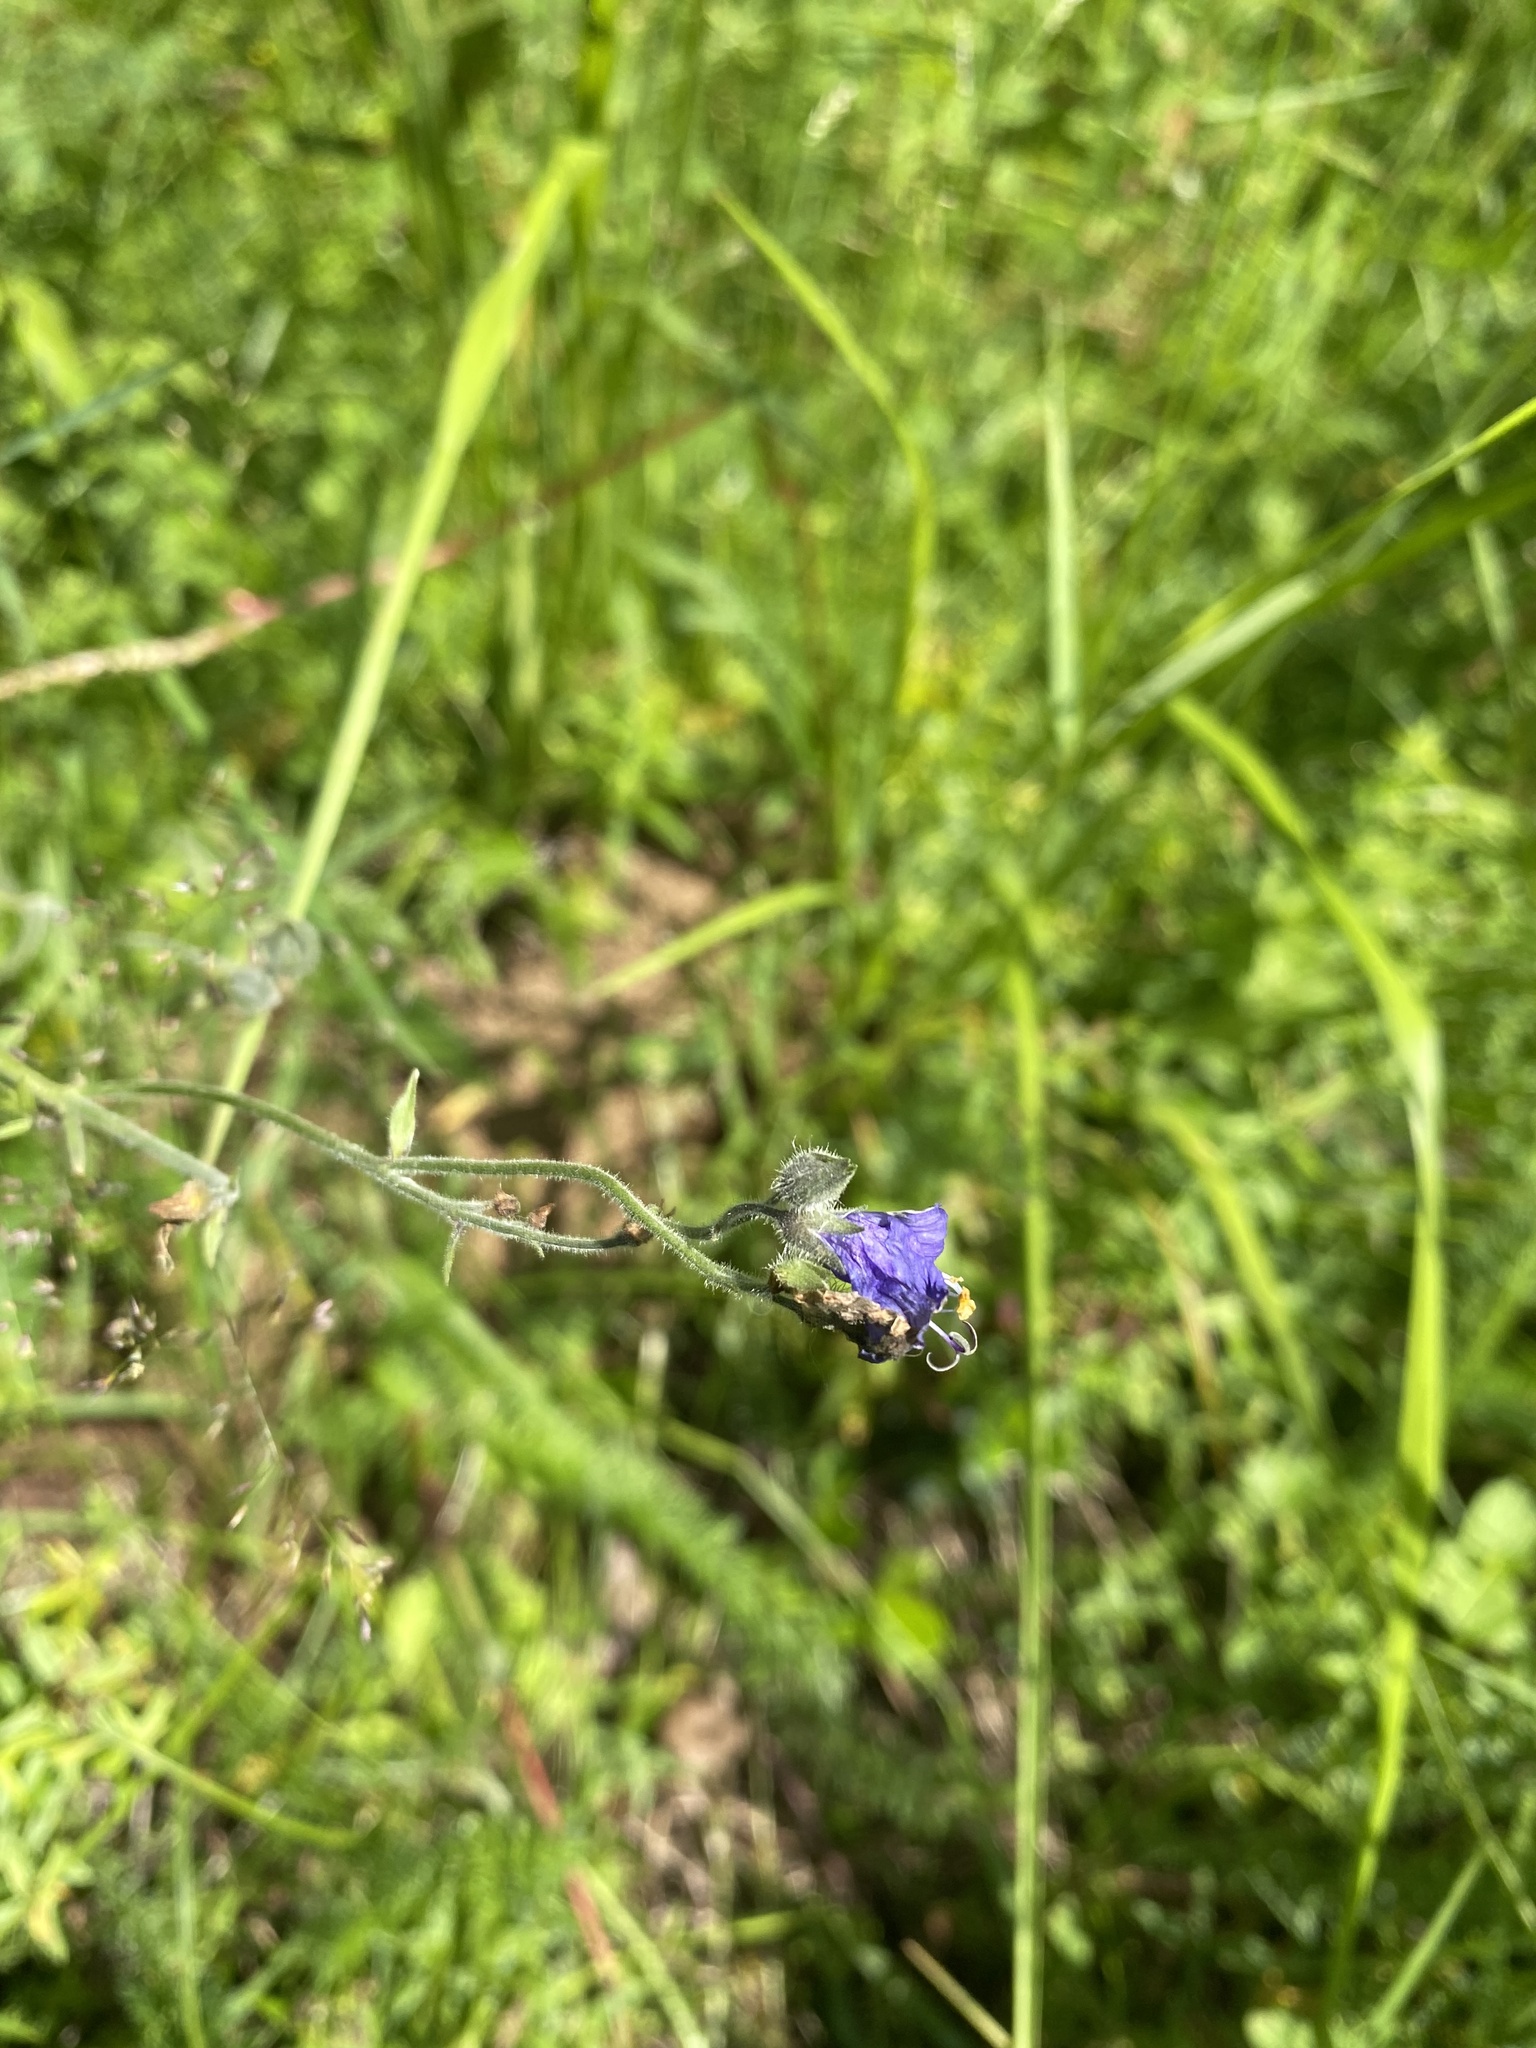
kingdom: Plantae
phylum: Tracheophyta
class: Magnoliopsida
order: Ericales
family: Polemoniaceae
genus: Polemonium
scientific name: Polemonium acutiflorum
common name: Tall jacob's-ladder
